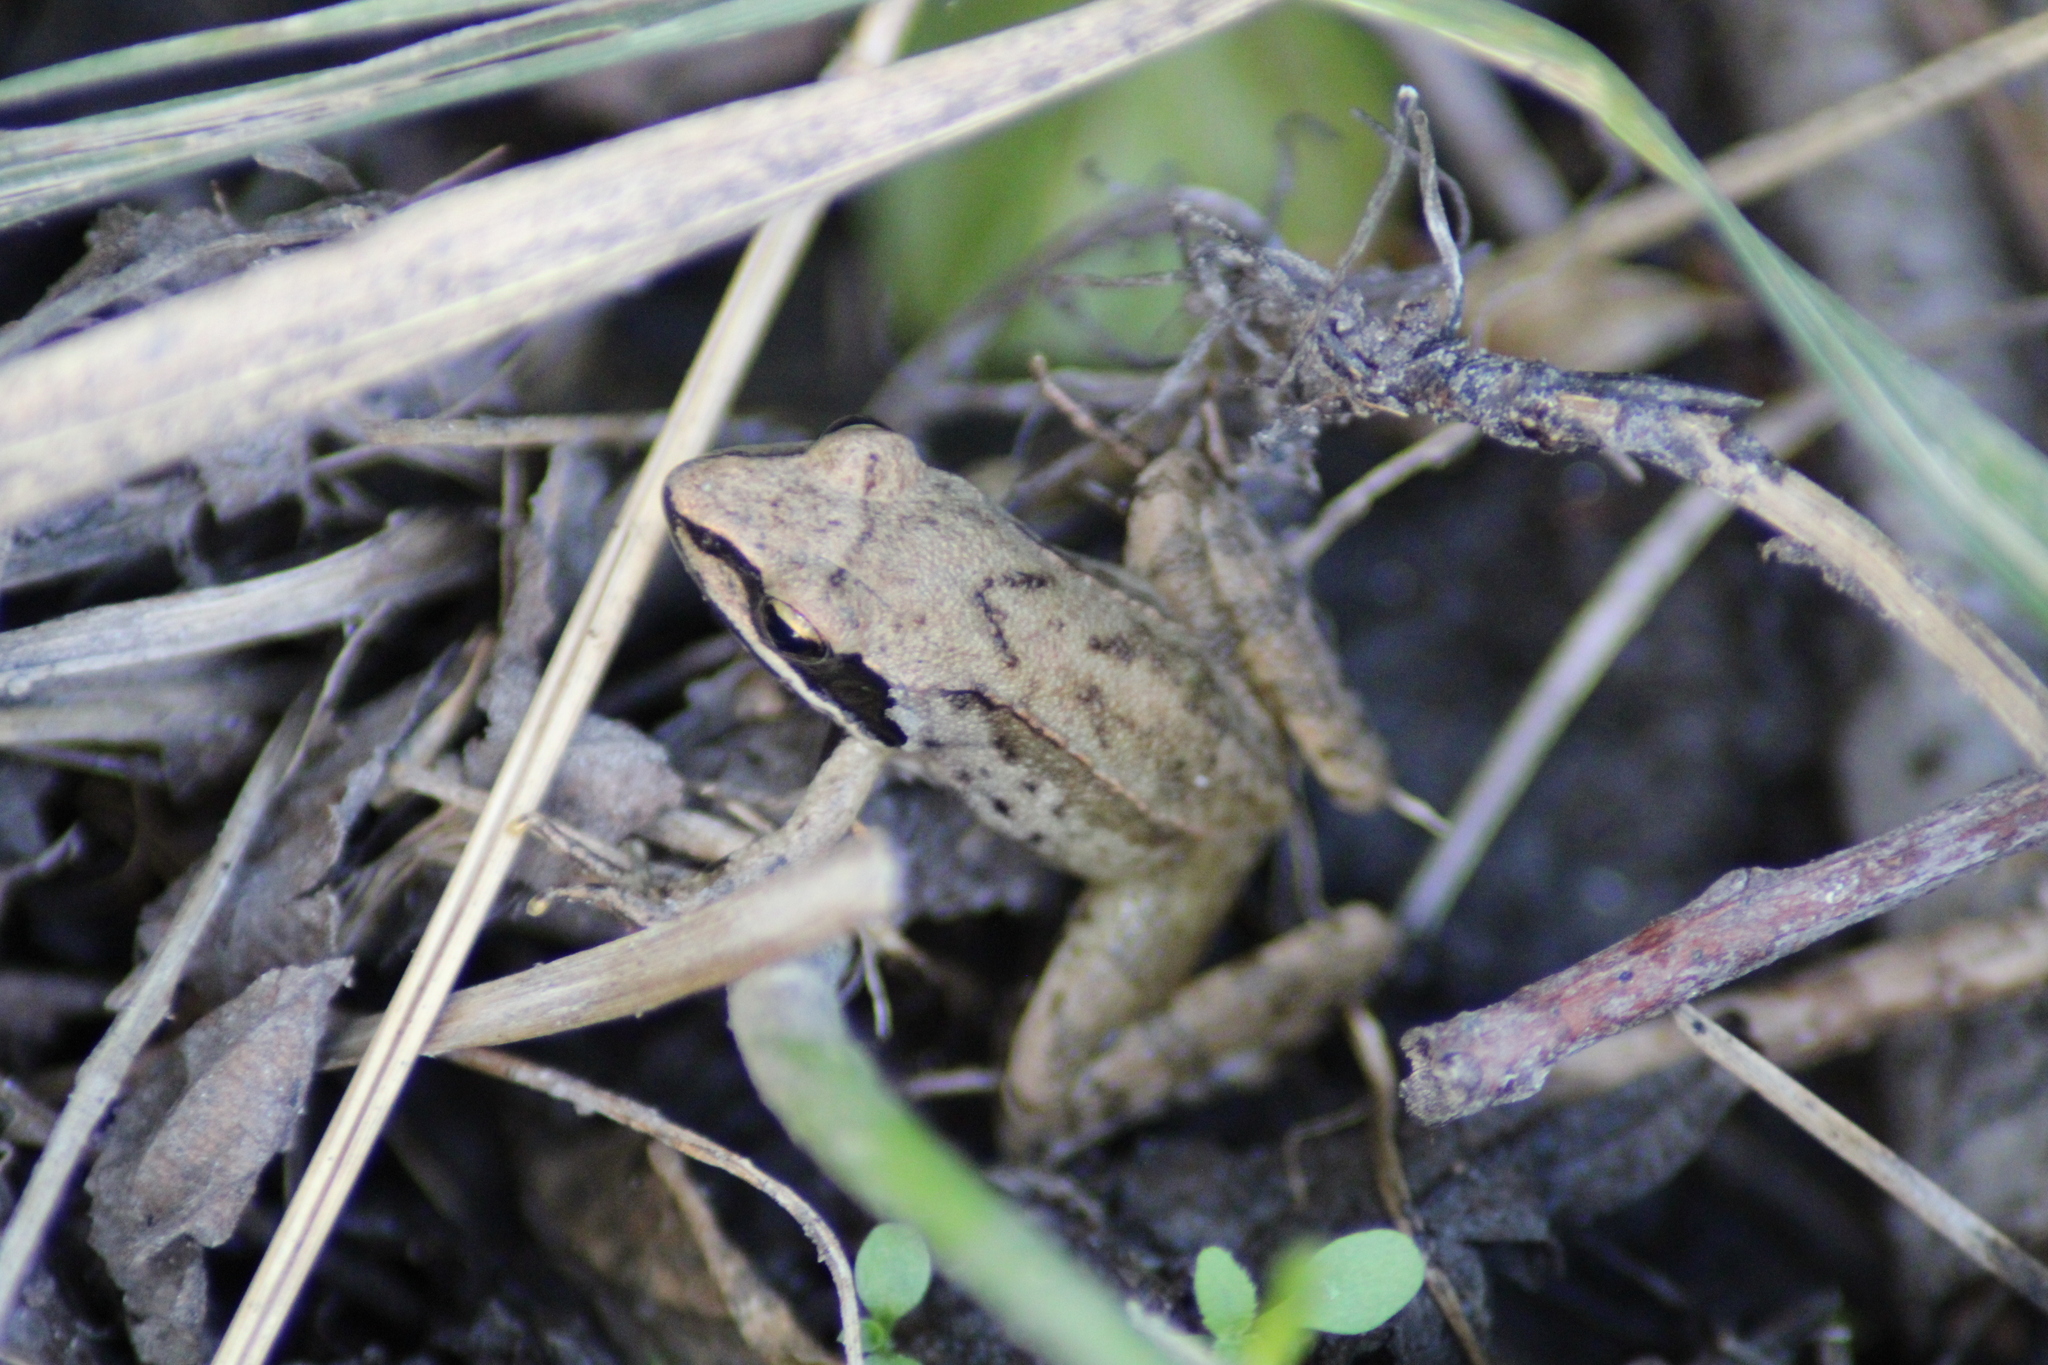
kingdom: Animalia
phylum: Chordata
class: Amphibia
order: Anura
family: Ranidae
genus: Rana
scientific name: Rana dalmatina
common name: Agile frog
